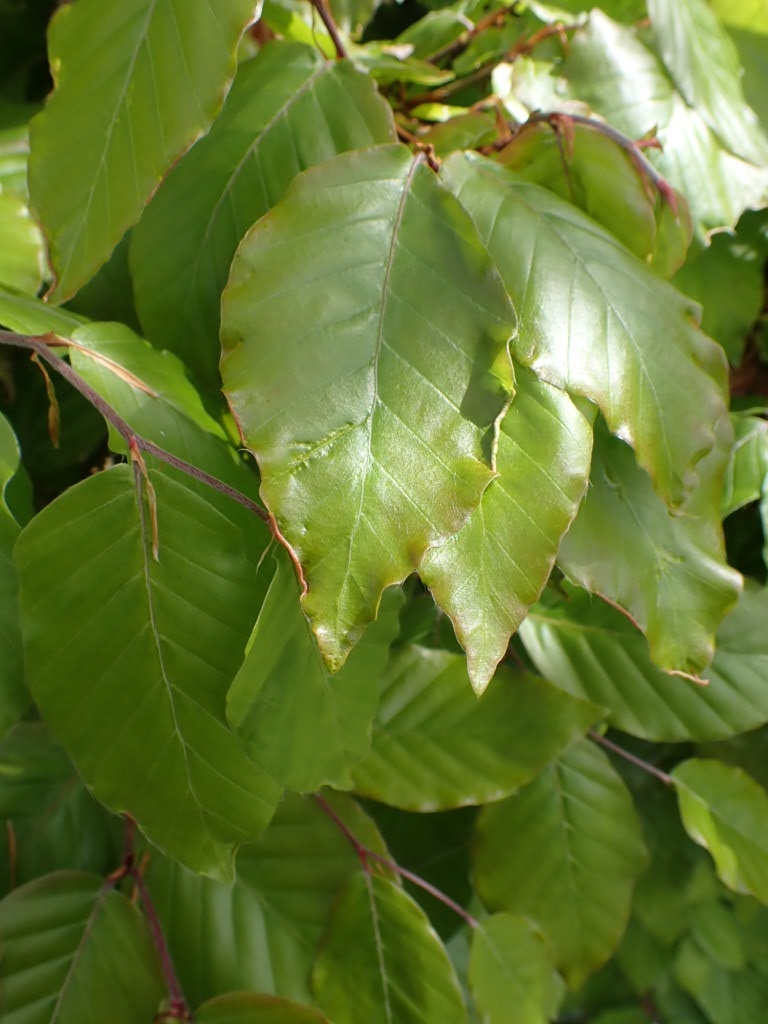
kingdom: Animalia
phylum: Arthropoda
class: Arachnida
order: Trombidiformes
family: Eriophyidae
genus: Acalitus
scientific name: Acalitus stenaspis
